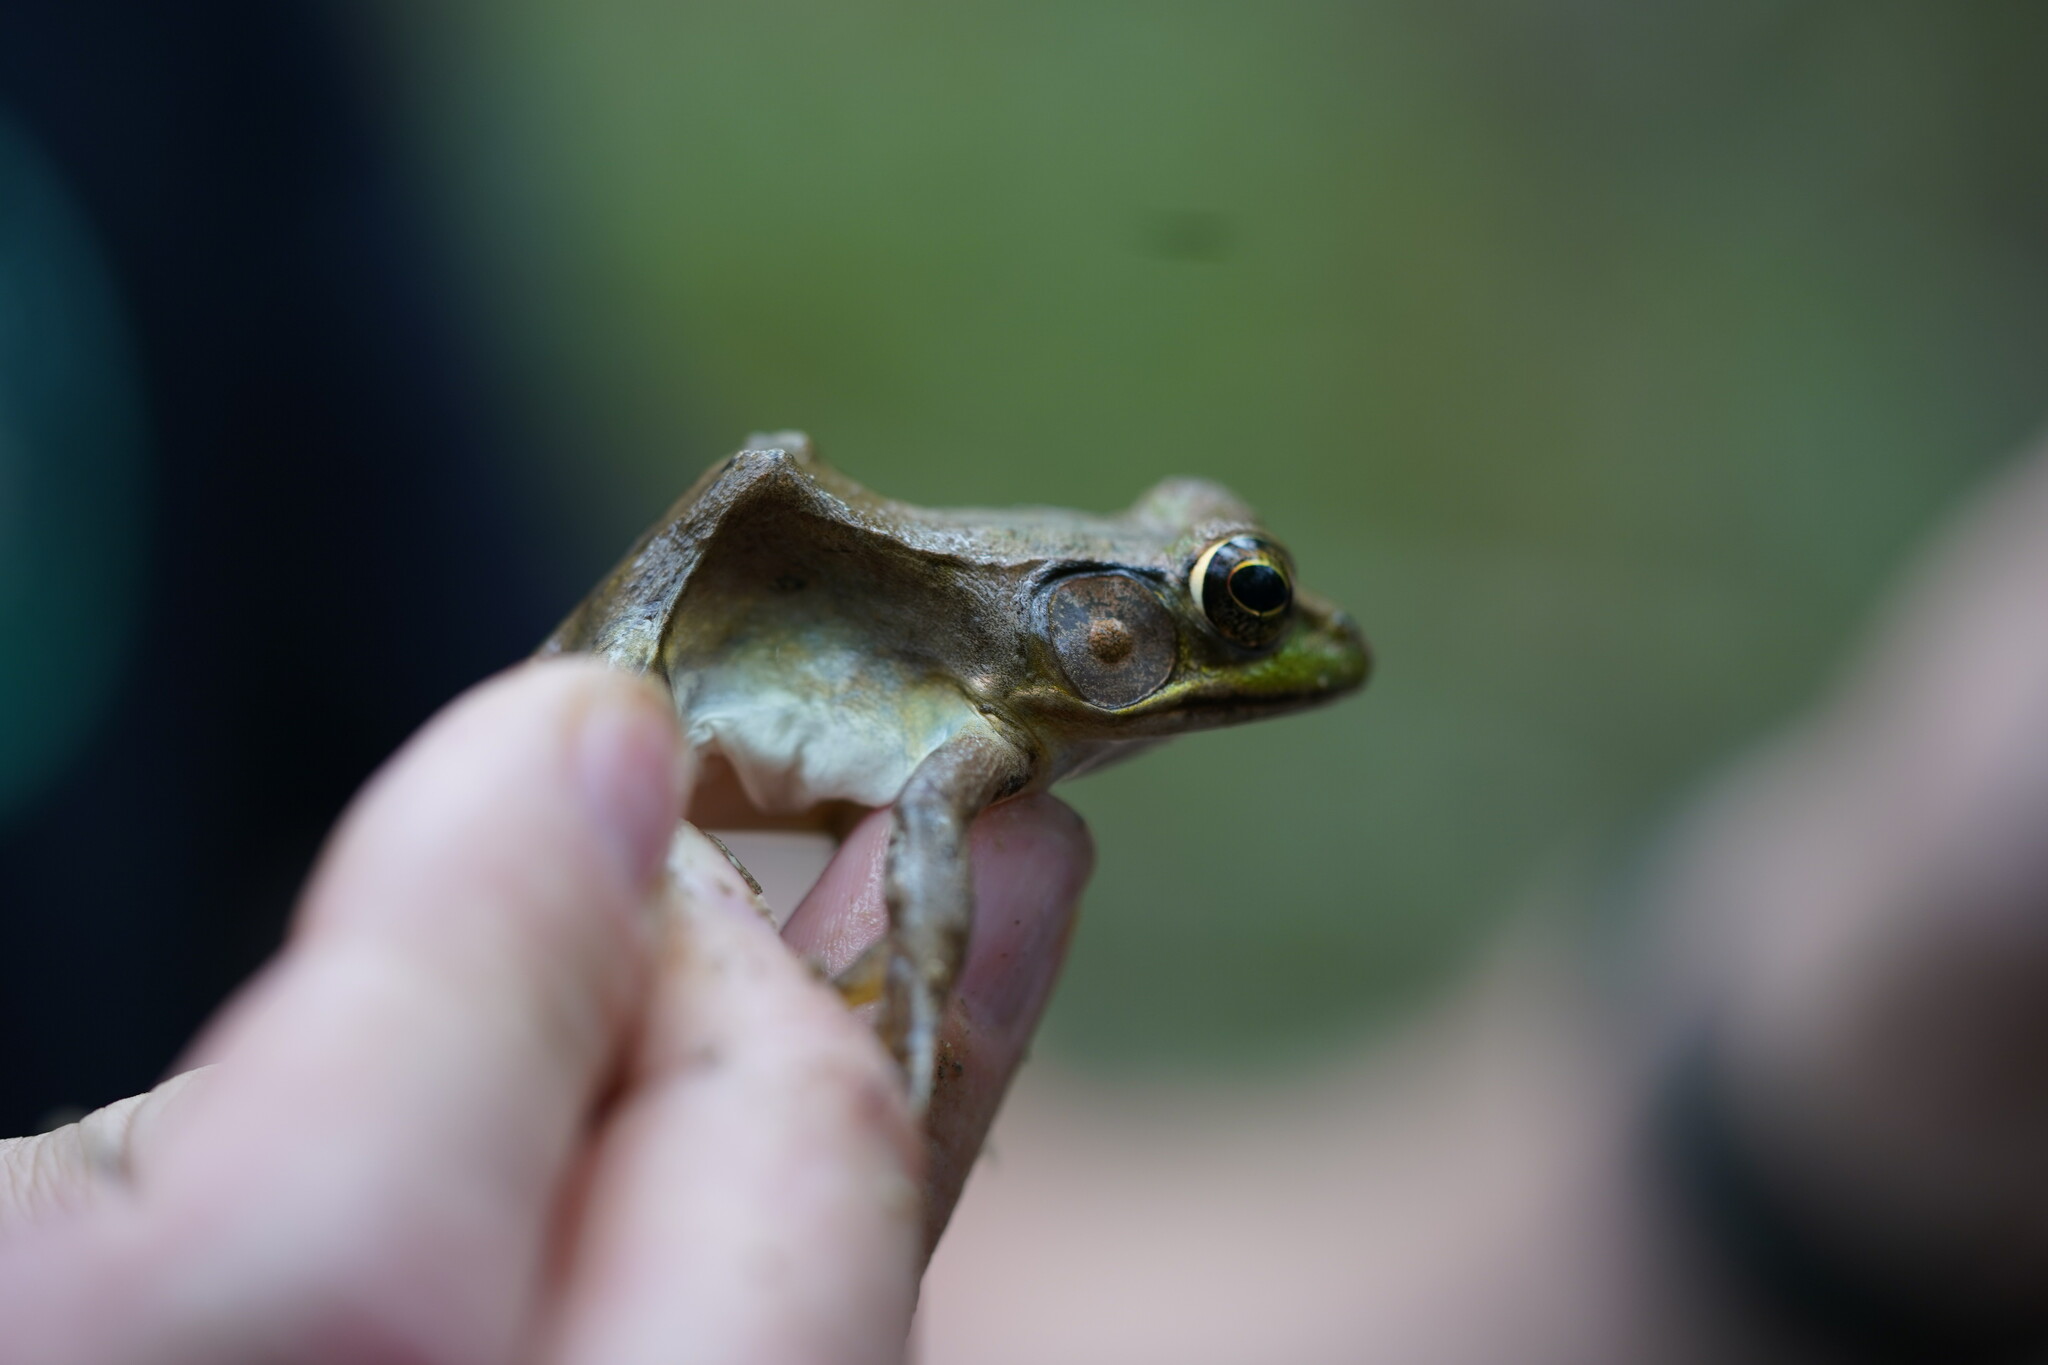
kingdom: Animalia
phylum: Chordata
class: Amphibia
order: Anura
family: Ranidae
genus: Lithobates
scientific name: Lithobates clamitans
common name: Green frog
